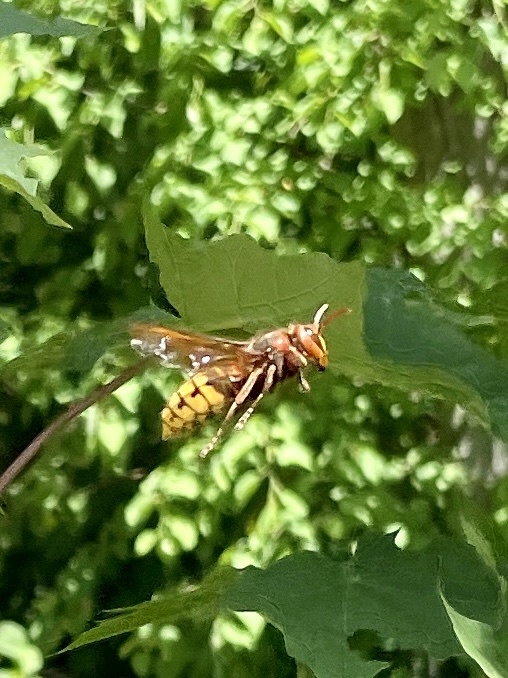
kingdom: Animalia
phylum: Arthropoda
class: Insecta
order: Hymenoptera
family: Vespidae
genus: Vespa
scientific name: Vespa crabro
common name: Hornet
